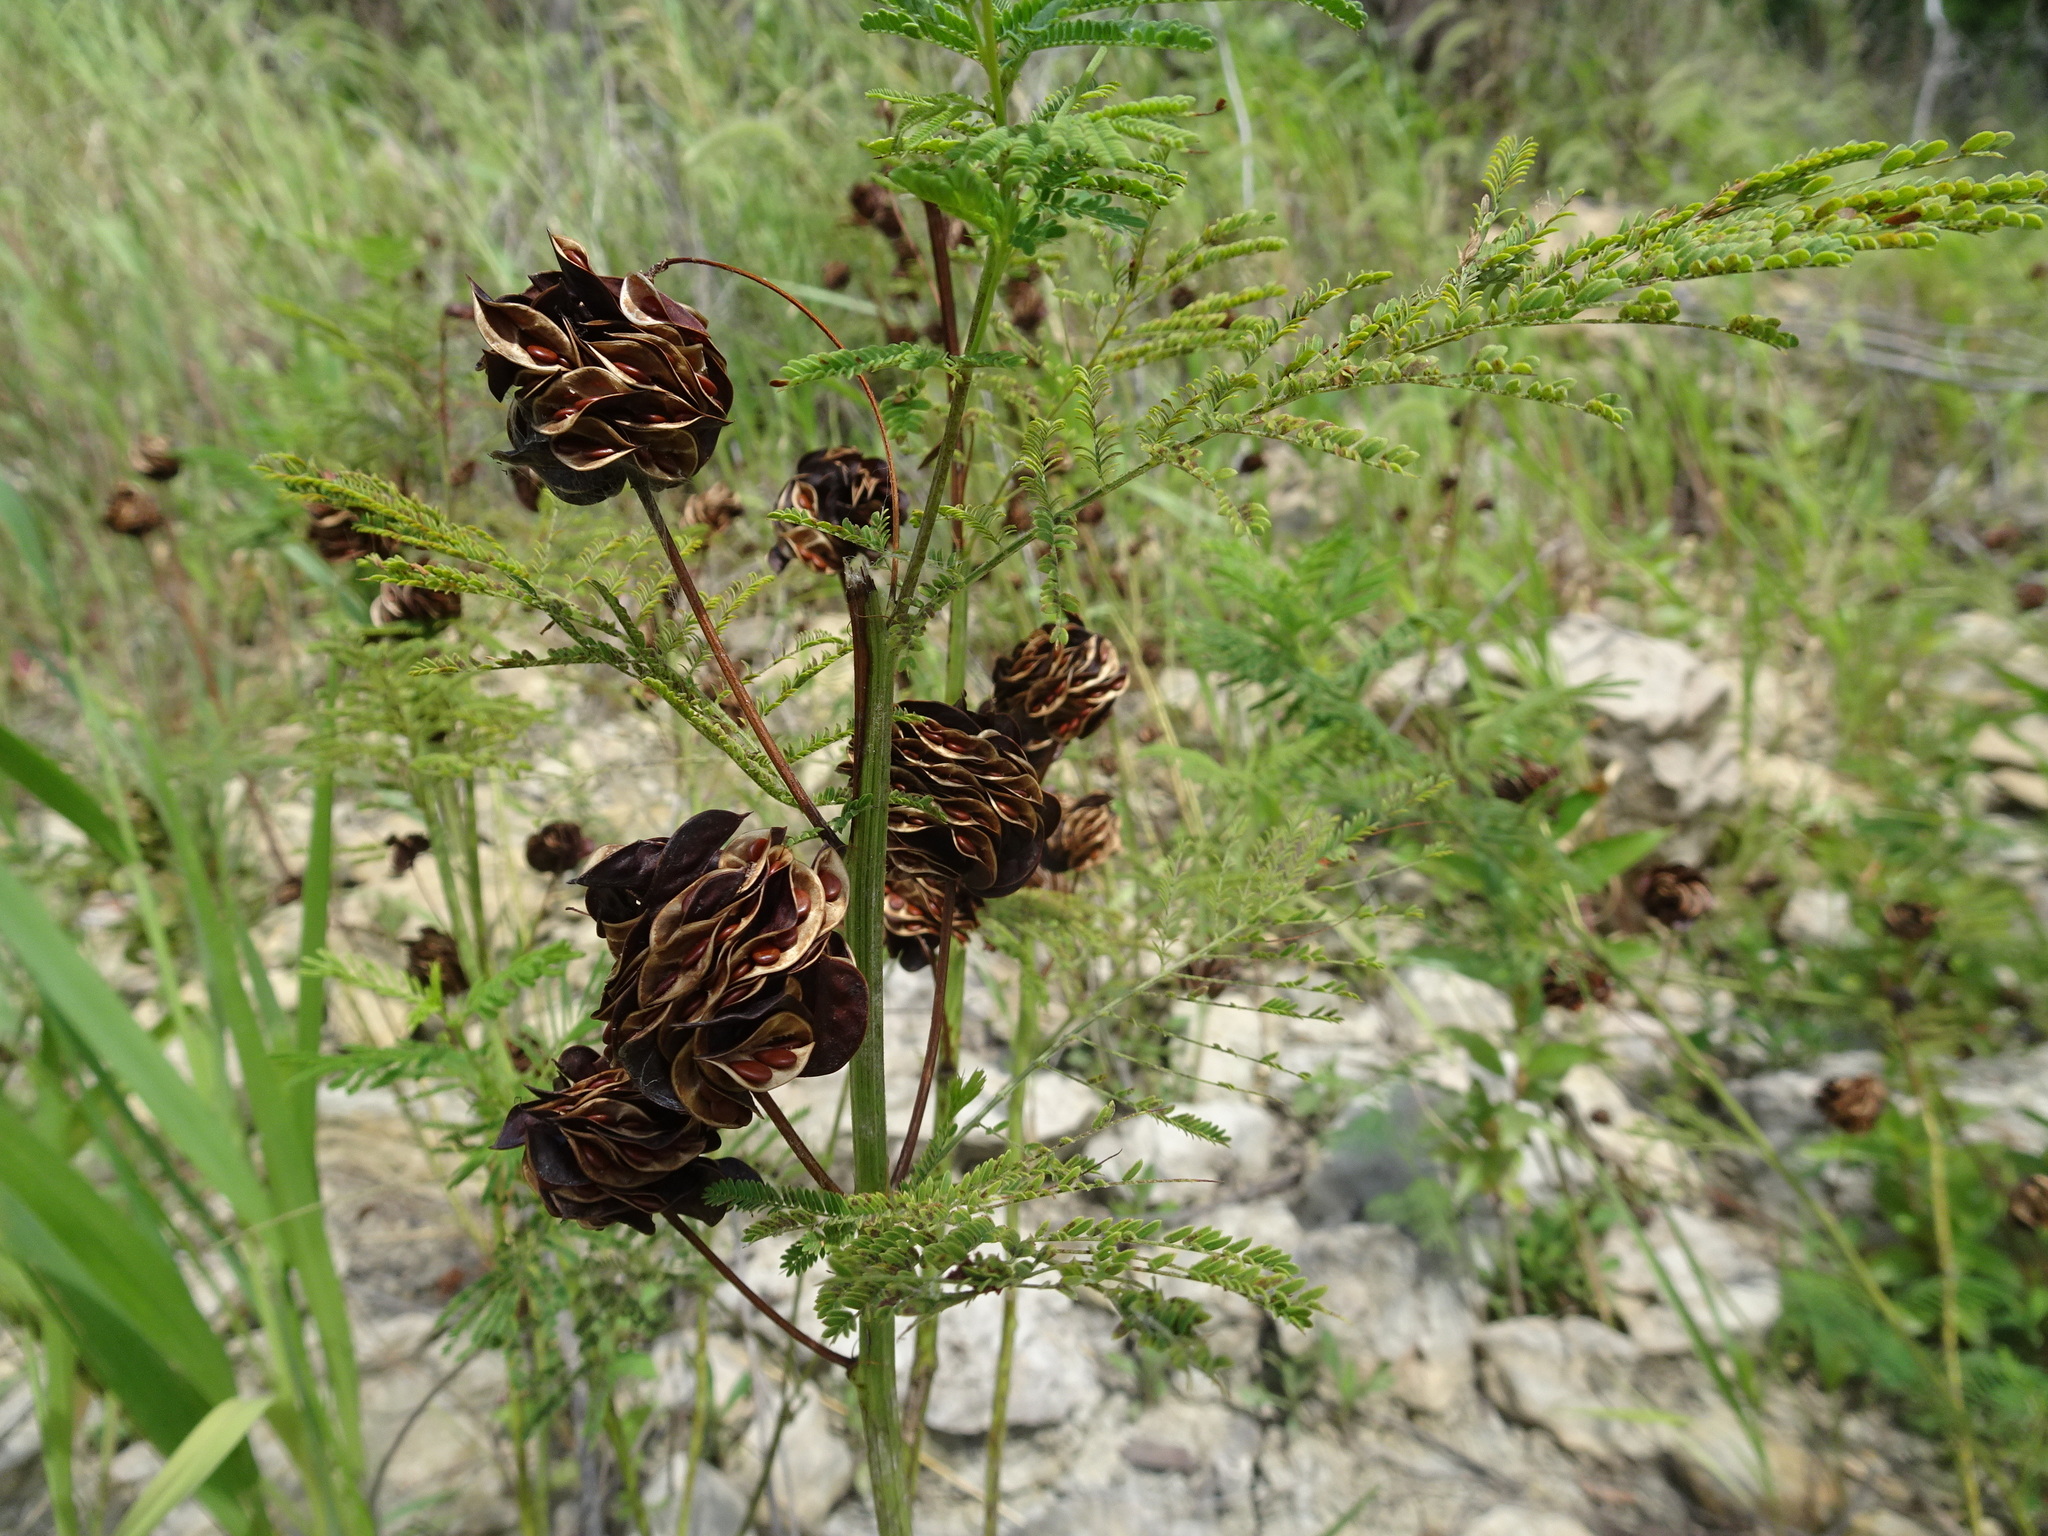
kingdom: Plantae
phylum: Tracheophyta
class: Magnoliopsida
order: Fabales
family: Fabaceae
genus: Desmanthus
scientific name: Desmanthus illinoensis
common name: Illinois bundle-flower
